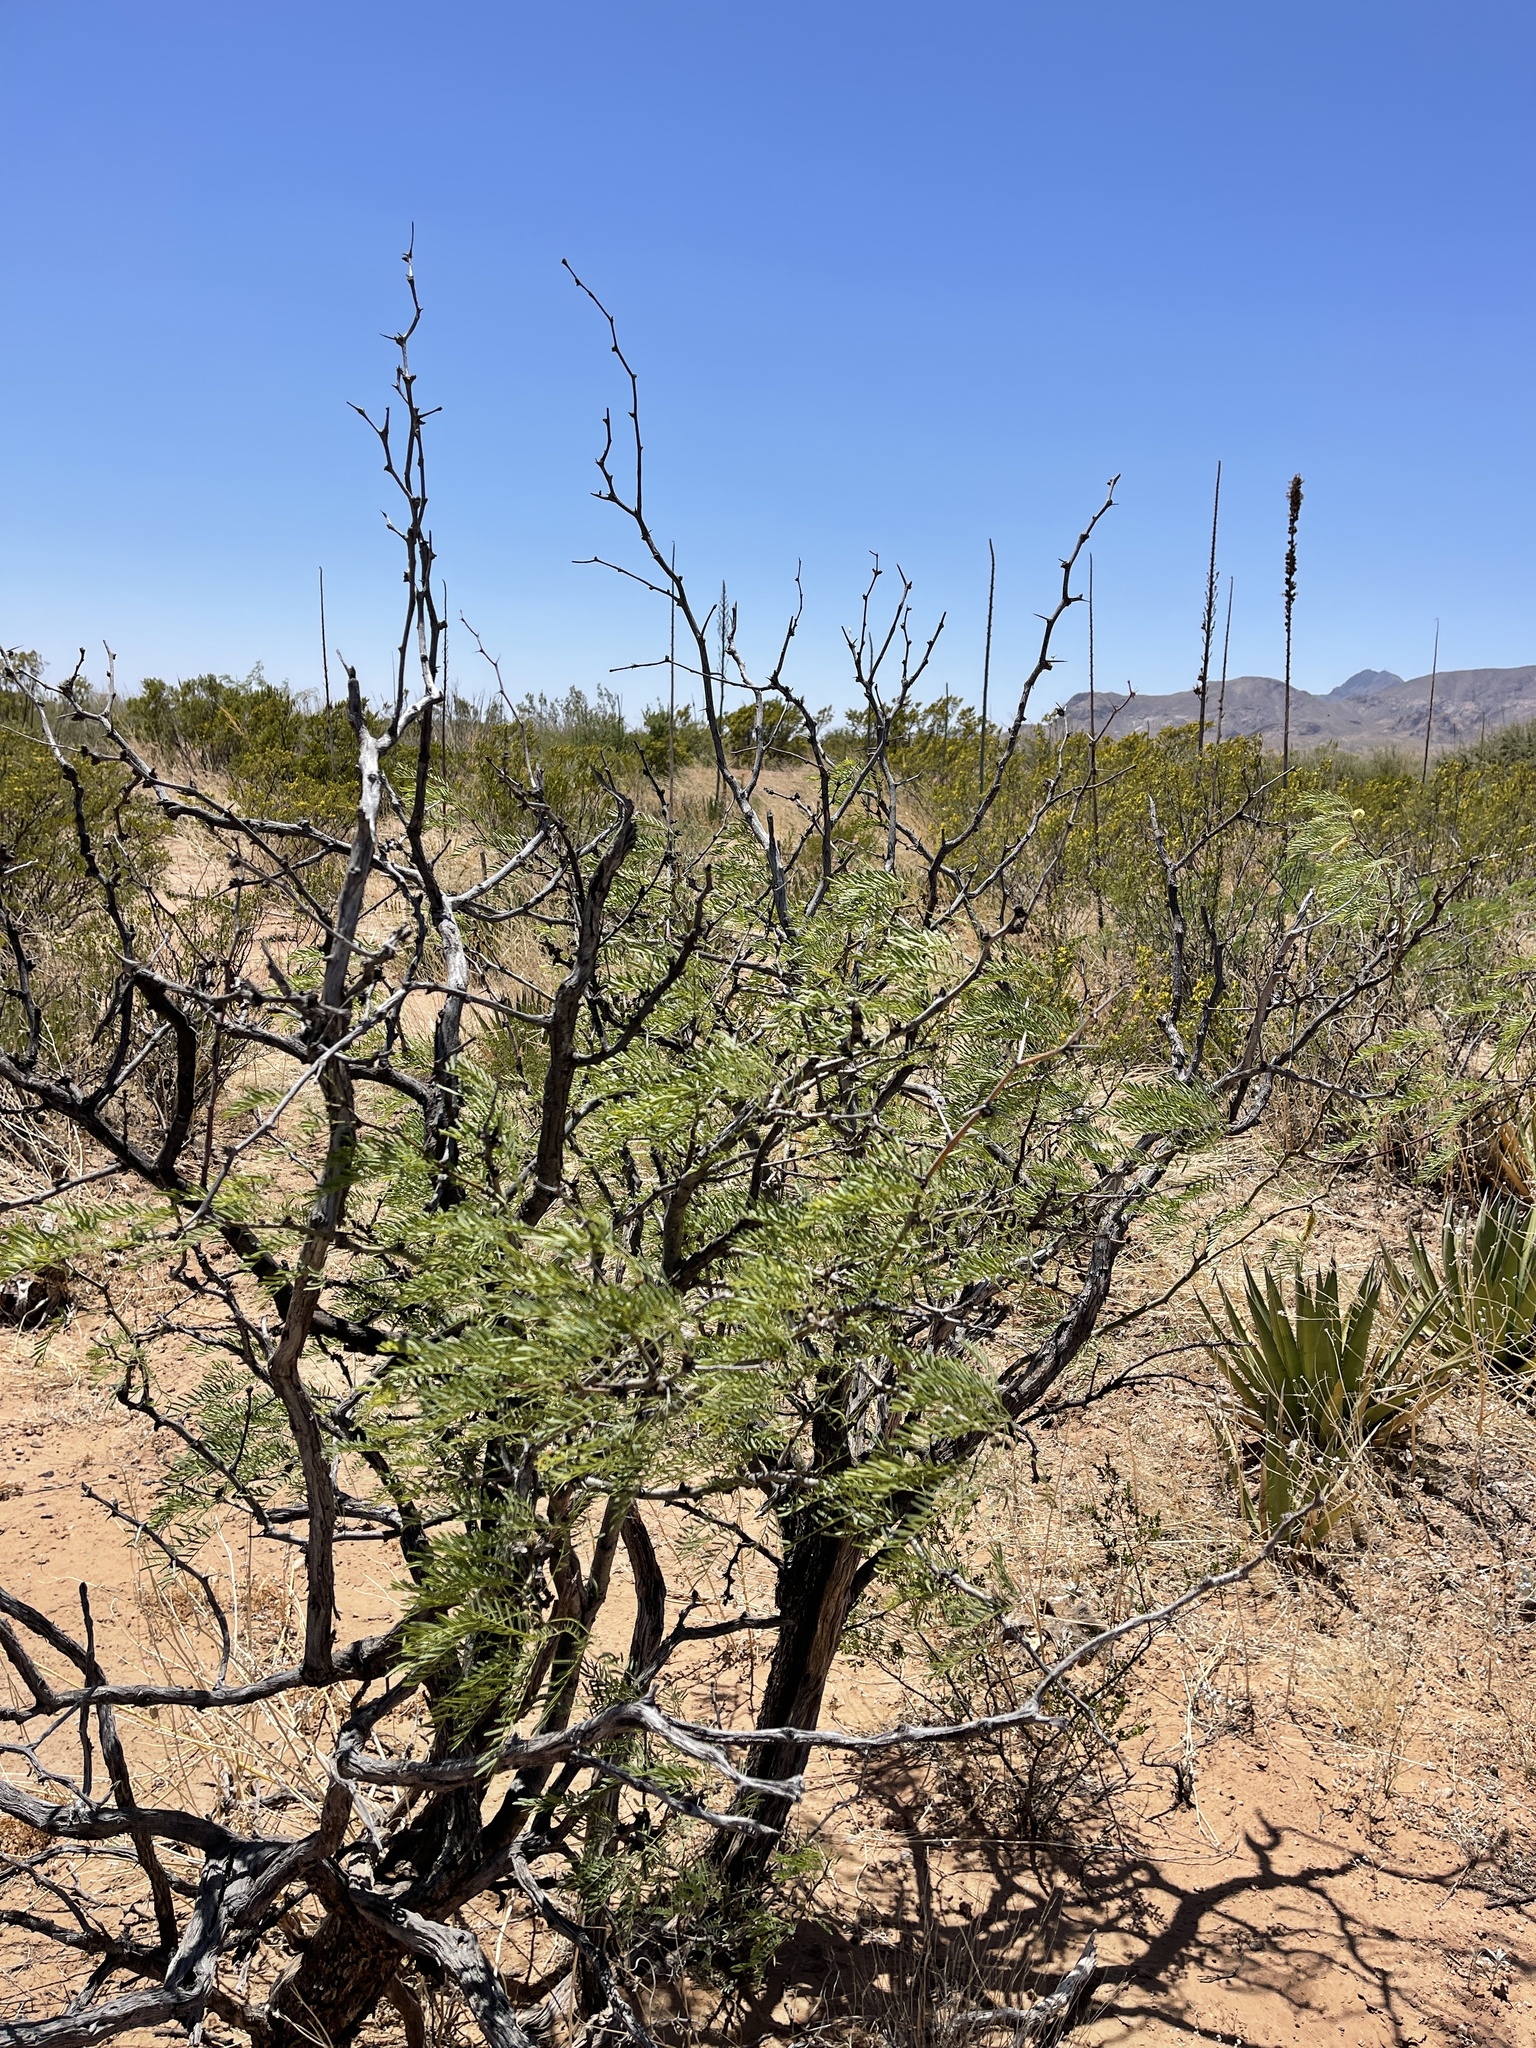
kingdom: Plantae
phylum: Tracheophyta
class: Magnoliopsida
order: Fabales
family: Fabaceae
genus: Prosopis
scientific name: Prosopis pubescens
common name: Screw-bean
